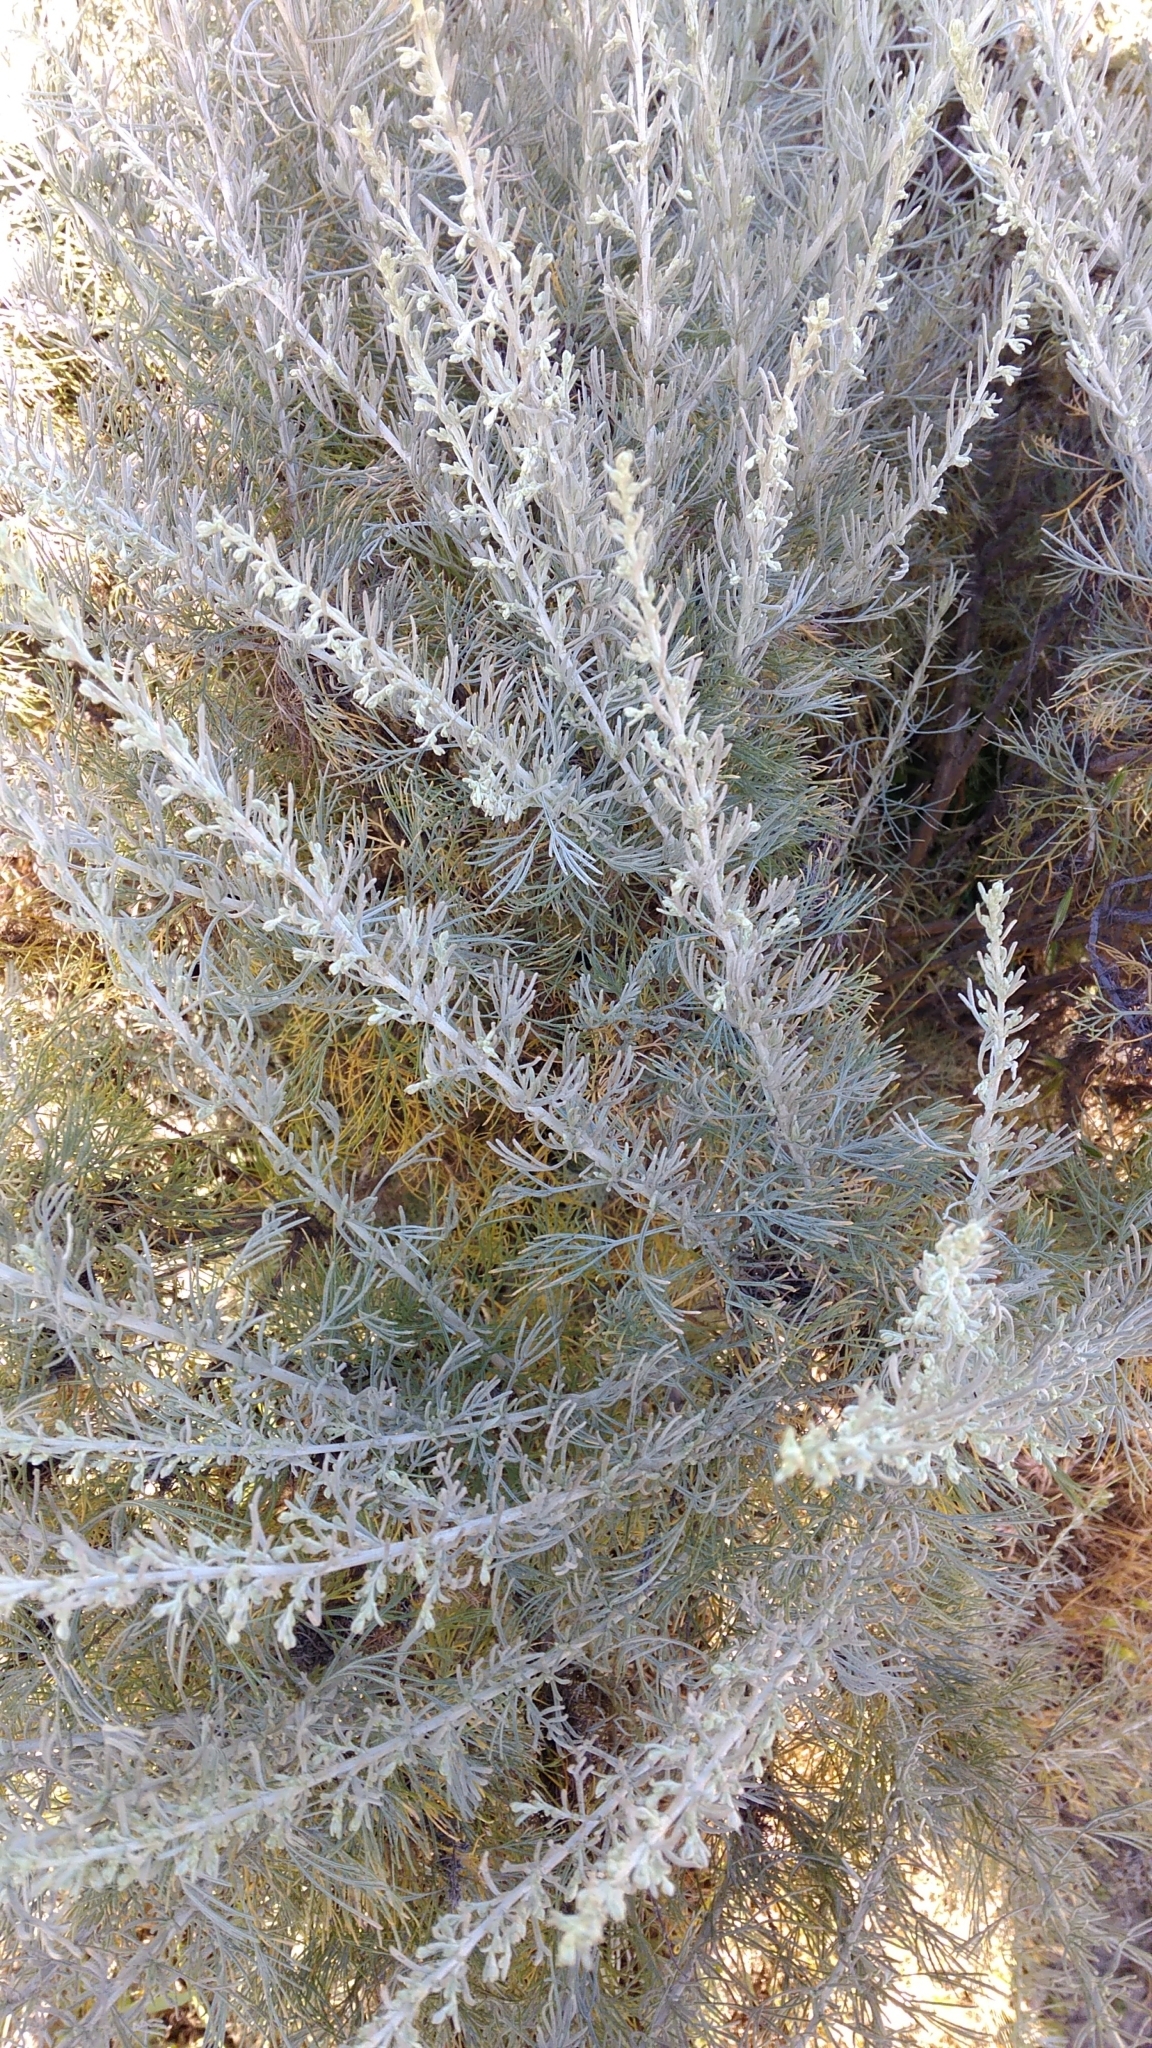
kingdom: Plantae
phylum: Tracheophyta
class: Magnoliopsida
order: Asterales
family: Asteraceae
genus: Artemisia
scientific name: Artemisia californica
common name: California sagebrush
